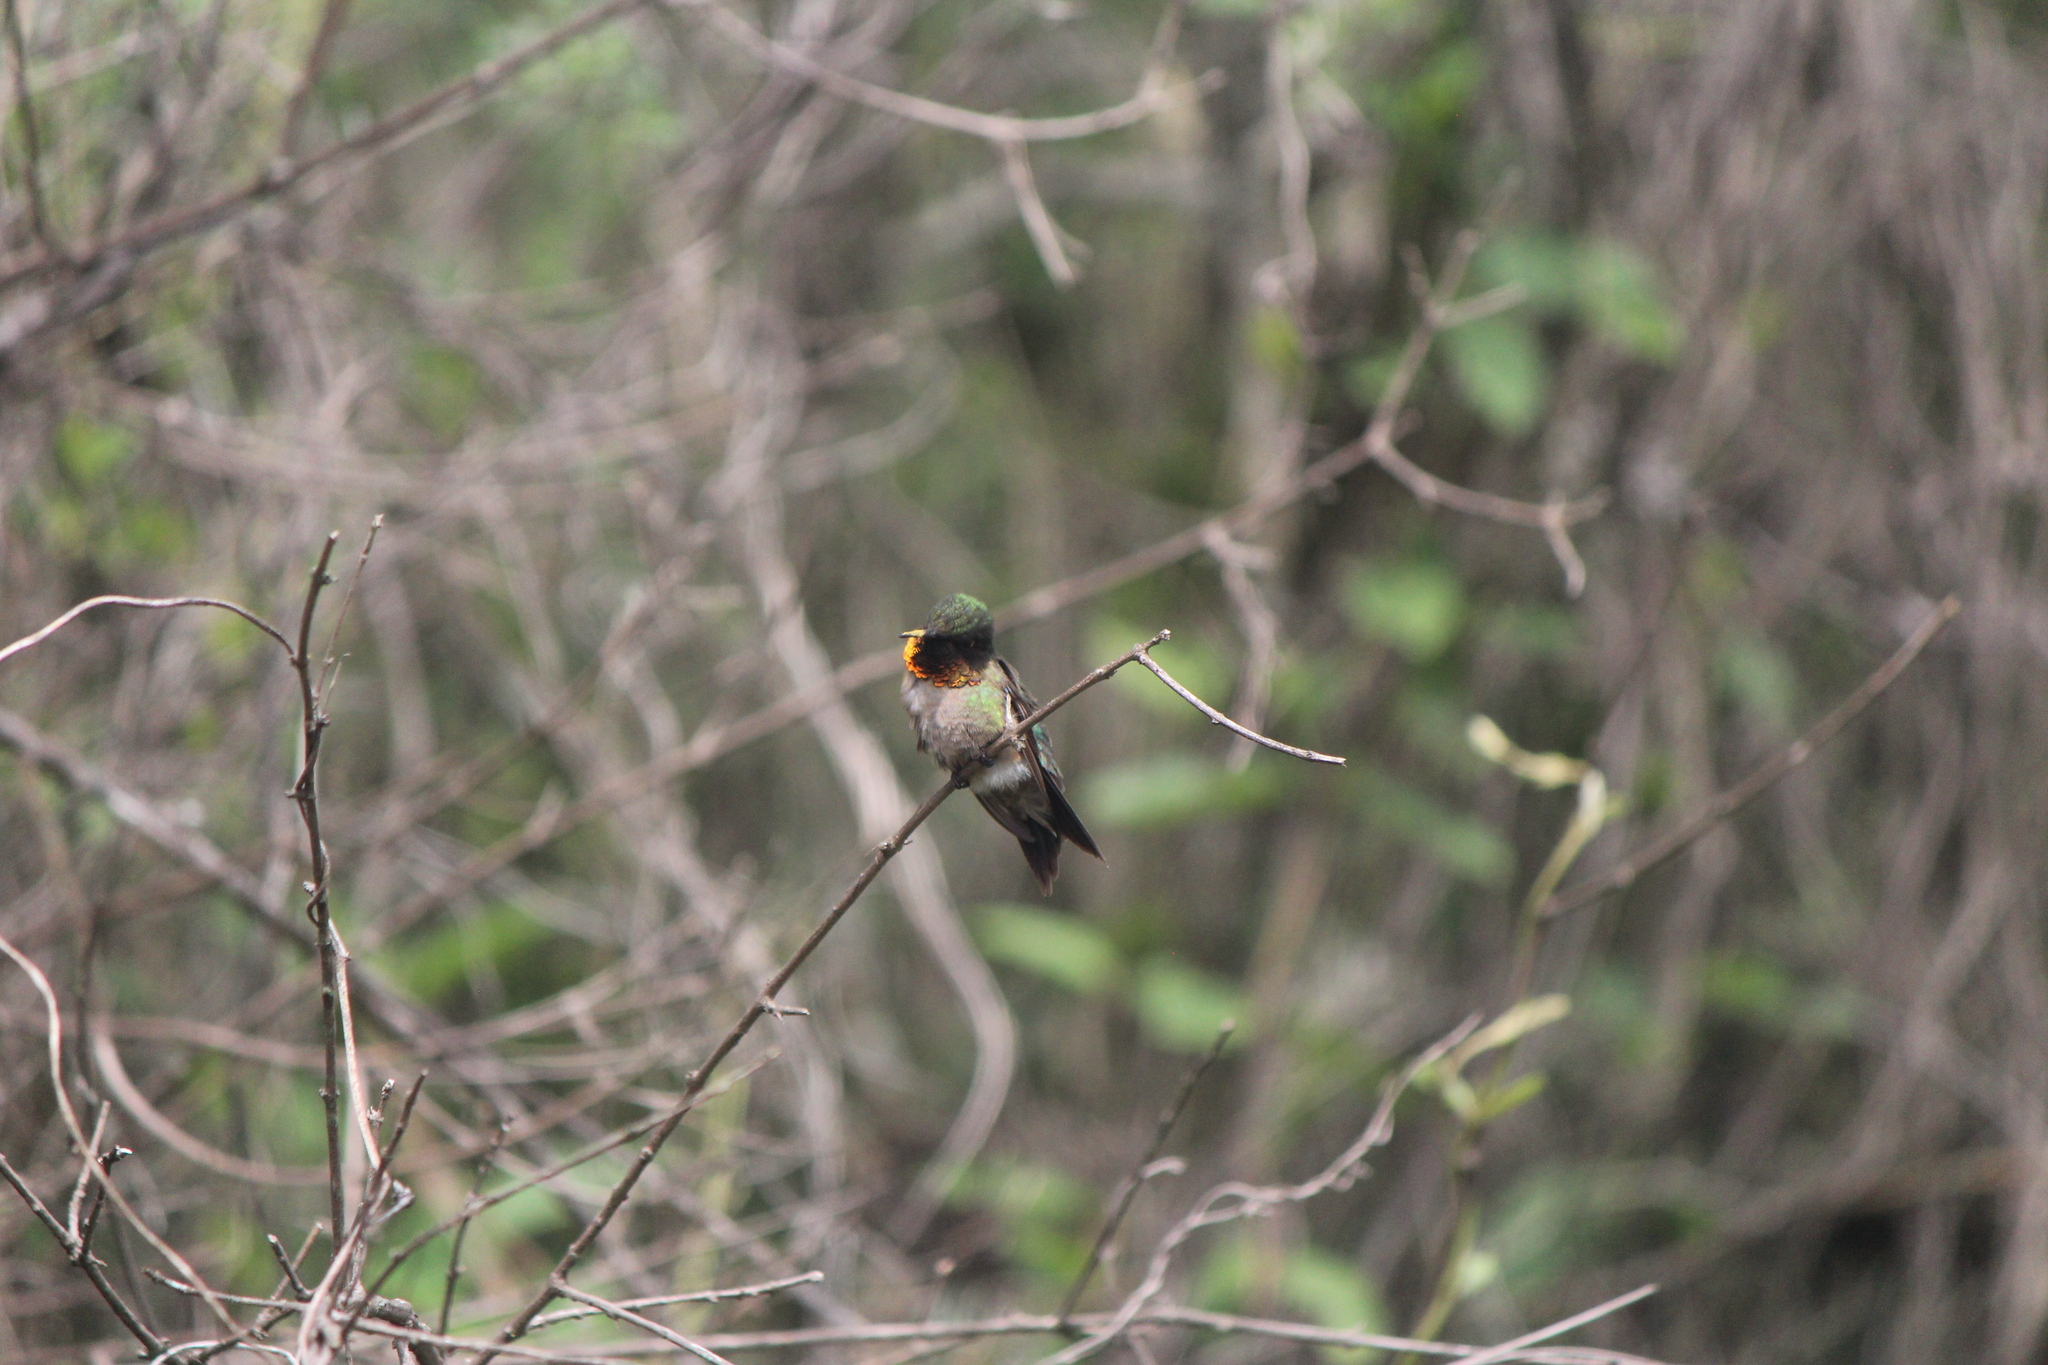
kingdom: Animalia
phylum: Chordata
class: Aves
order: Apodiformes
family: Trochilidae
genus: Archilochus
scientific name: Archilochus colubris
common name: Ruby-throated hummingbird
